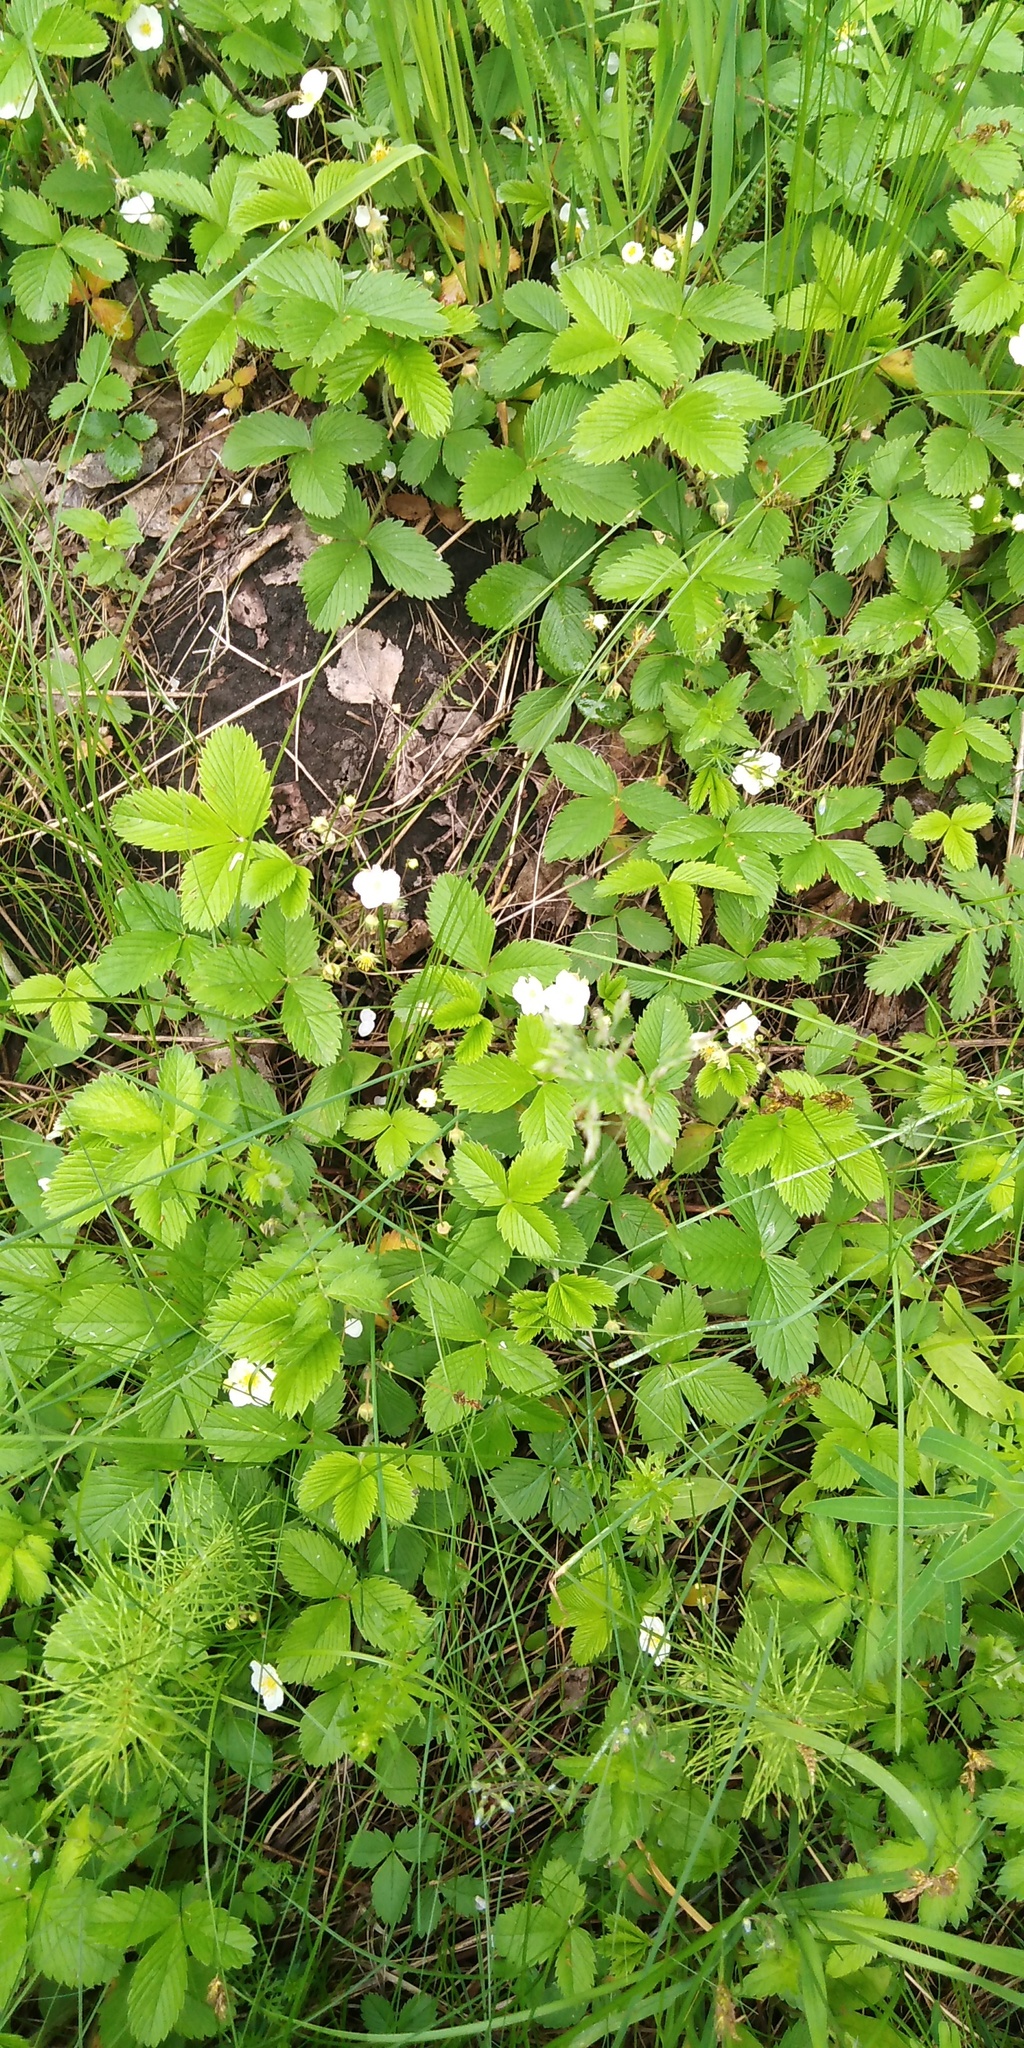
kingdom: Plantae
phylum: Tracheophyta
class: Magnoliopsida
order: Rosales
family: Rosaceae
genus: Fragaria
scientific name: Fragaria vesca
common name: Wild strawberry
